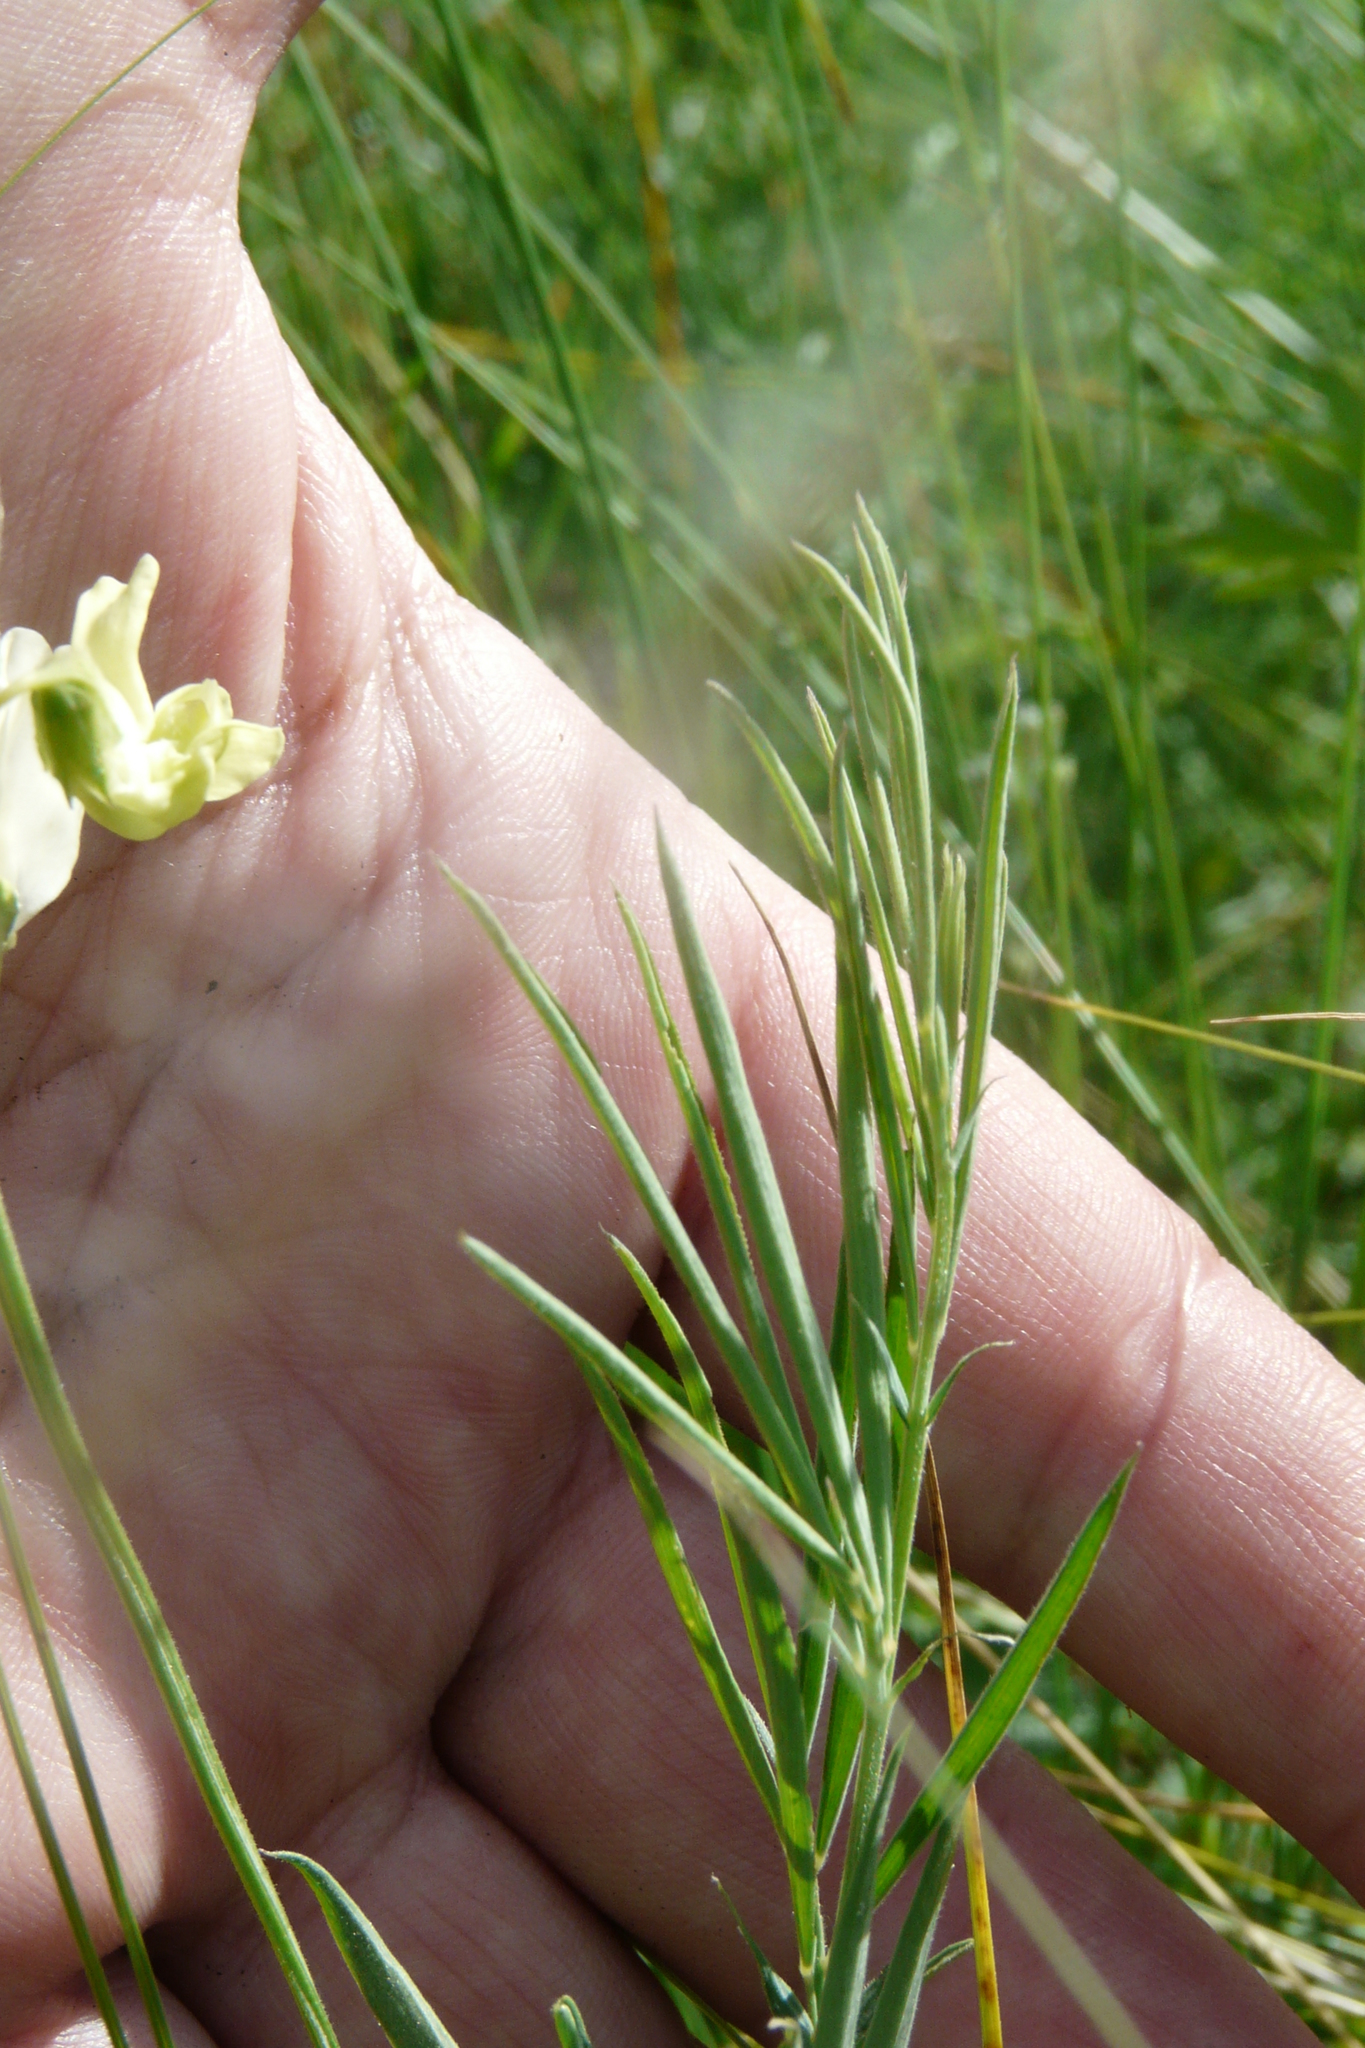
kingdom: Plantae
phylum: Tracheophyta
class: Magnoliopsida
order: Fabales
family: Fabaceae
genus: Lathyrus
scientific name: Lathyrus pallescens
